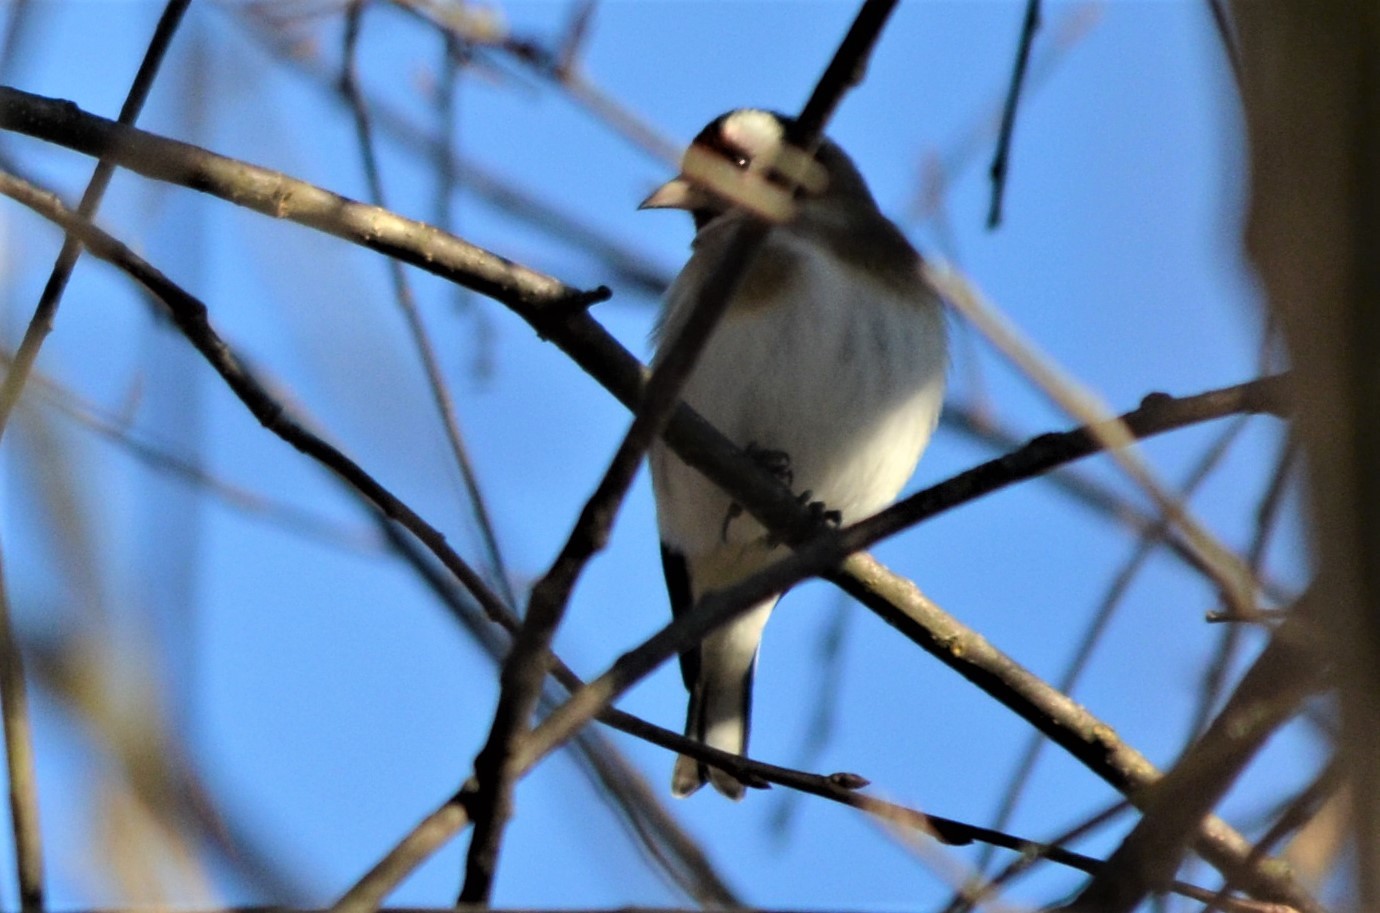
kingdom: Animalia
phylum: Chordata
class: Aves
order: Passeriformes
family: Fringillidae
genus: Carduelis
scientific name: Carduelis carduelis
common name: European goldfinch
